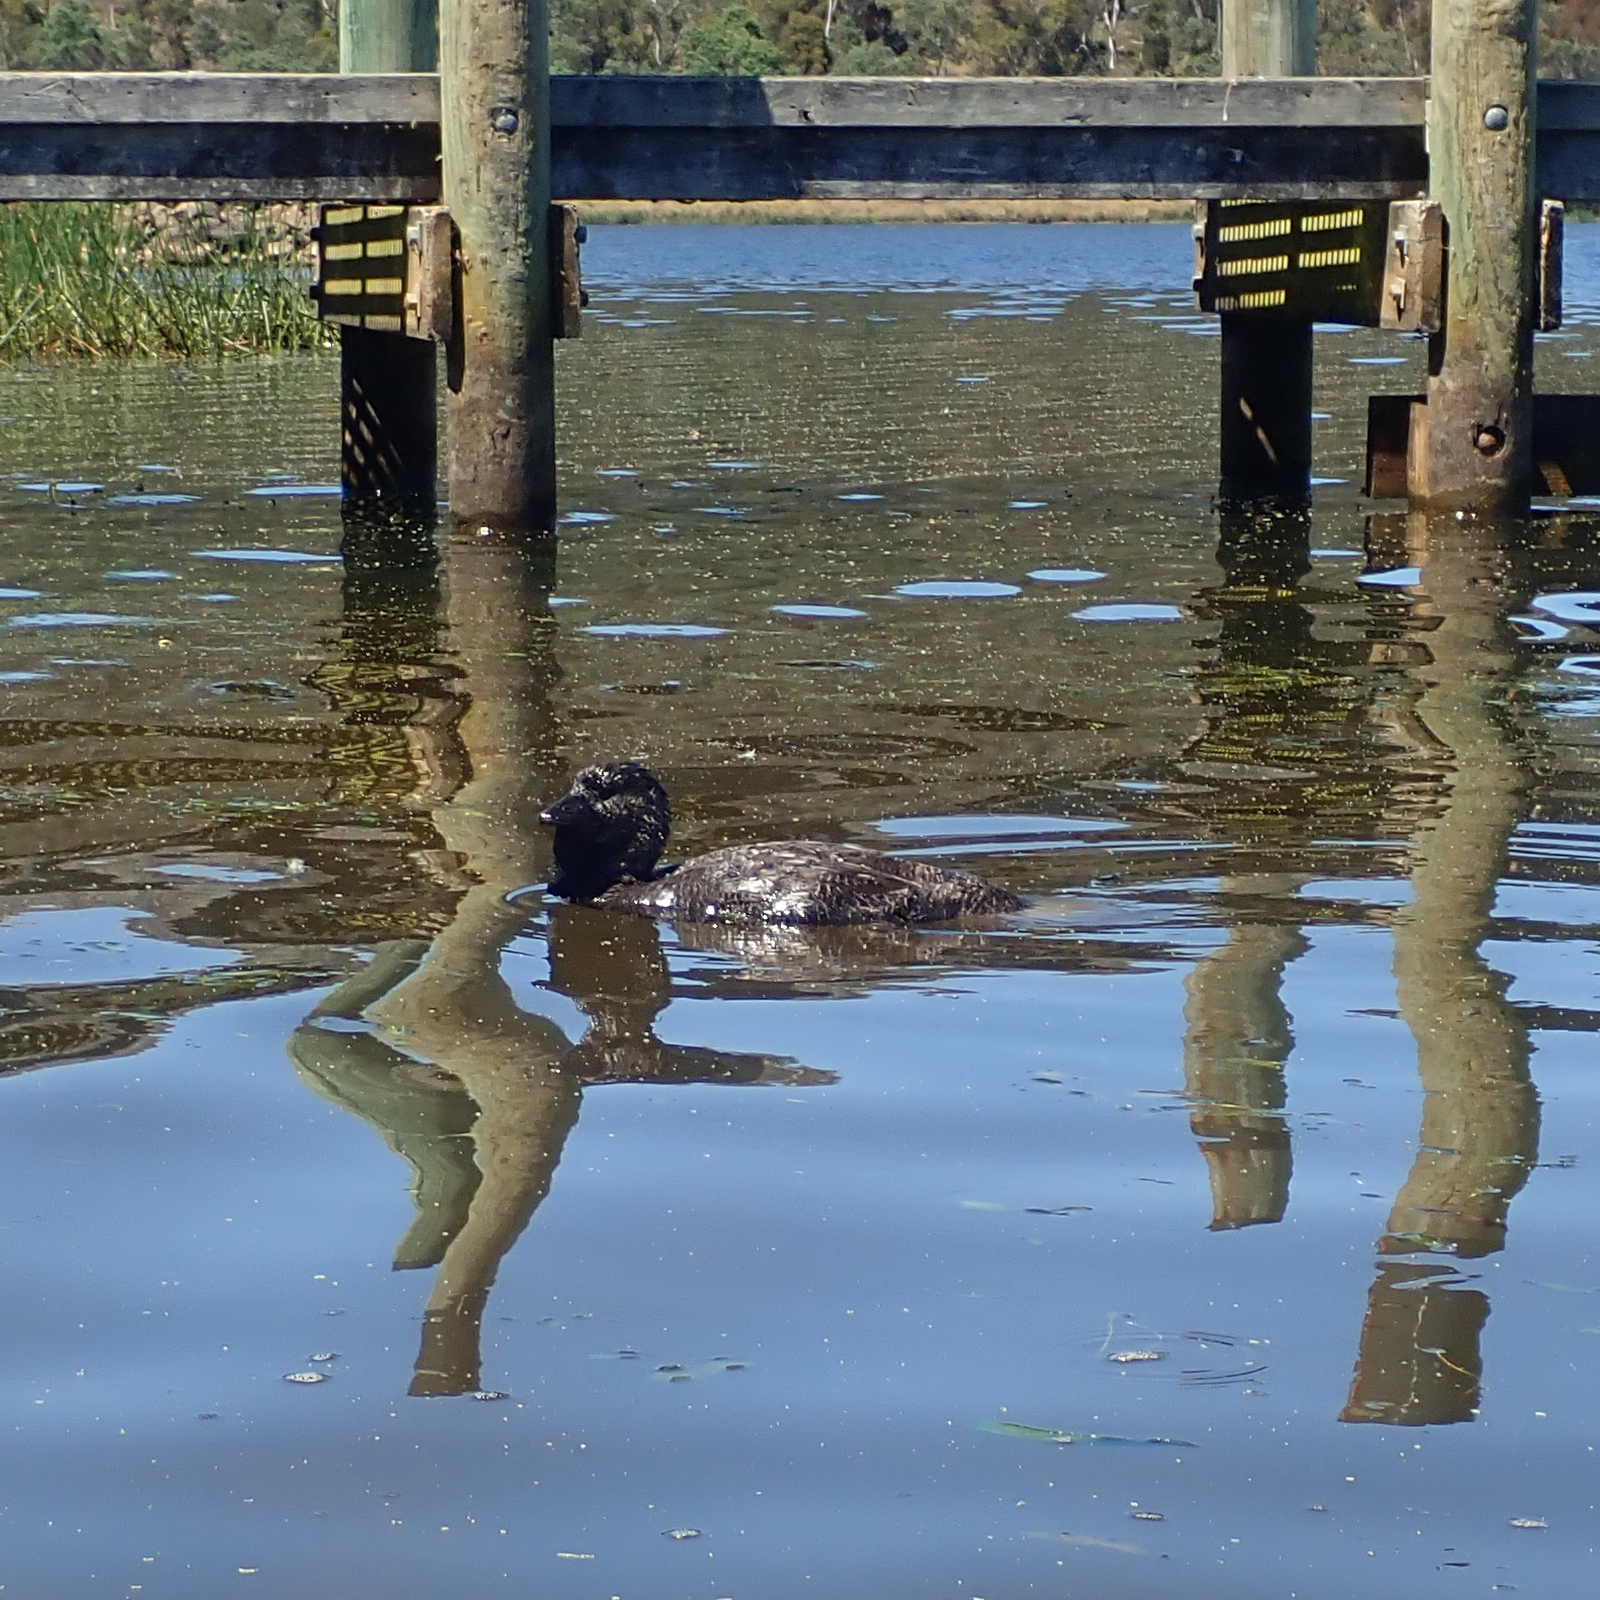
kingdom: Animalia
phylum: Chordata
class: Aves
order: Anseriformes
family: Anatidae
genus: Biziura
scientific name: Biziura lobata
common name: Musk duck
